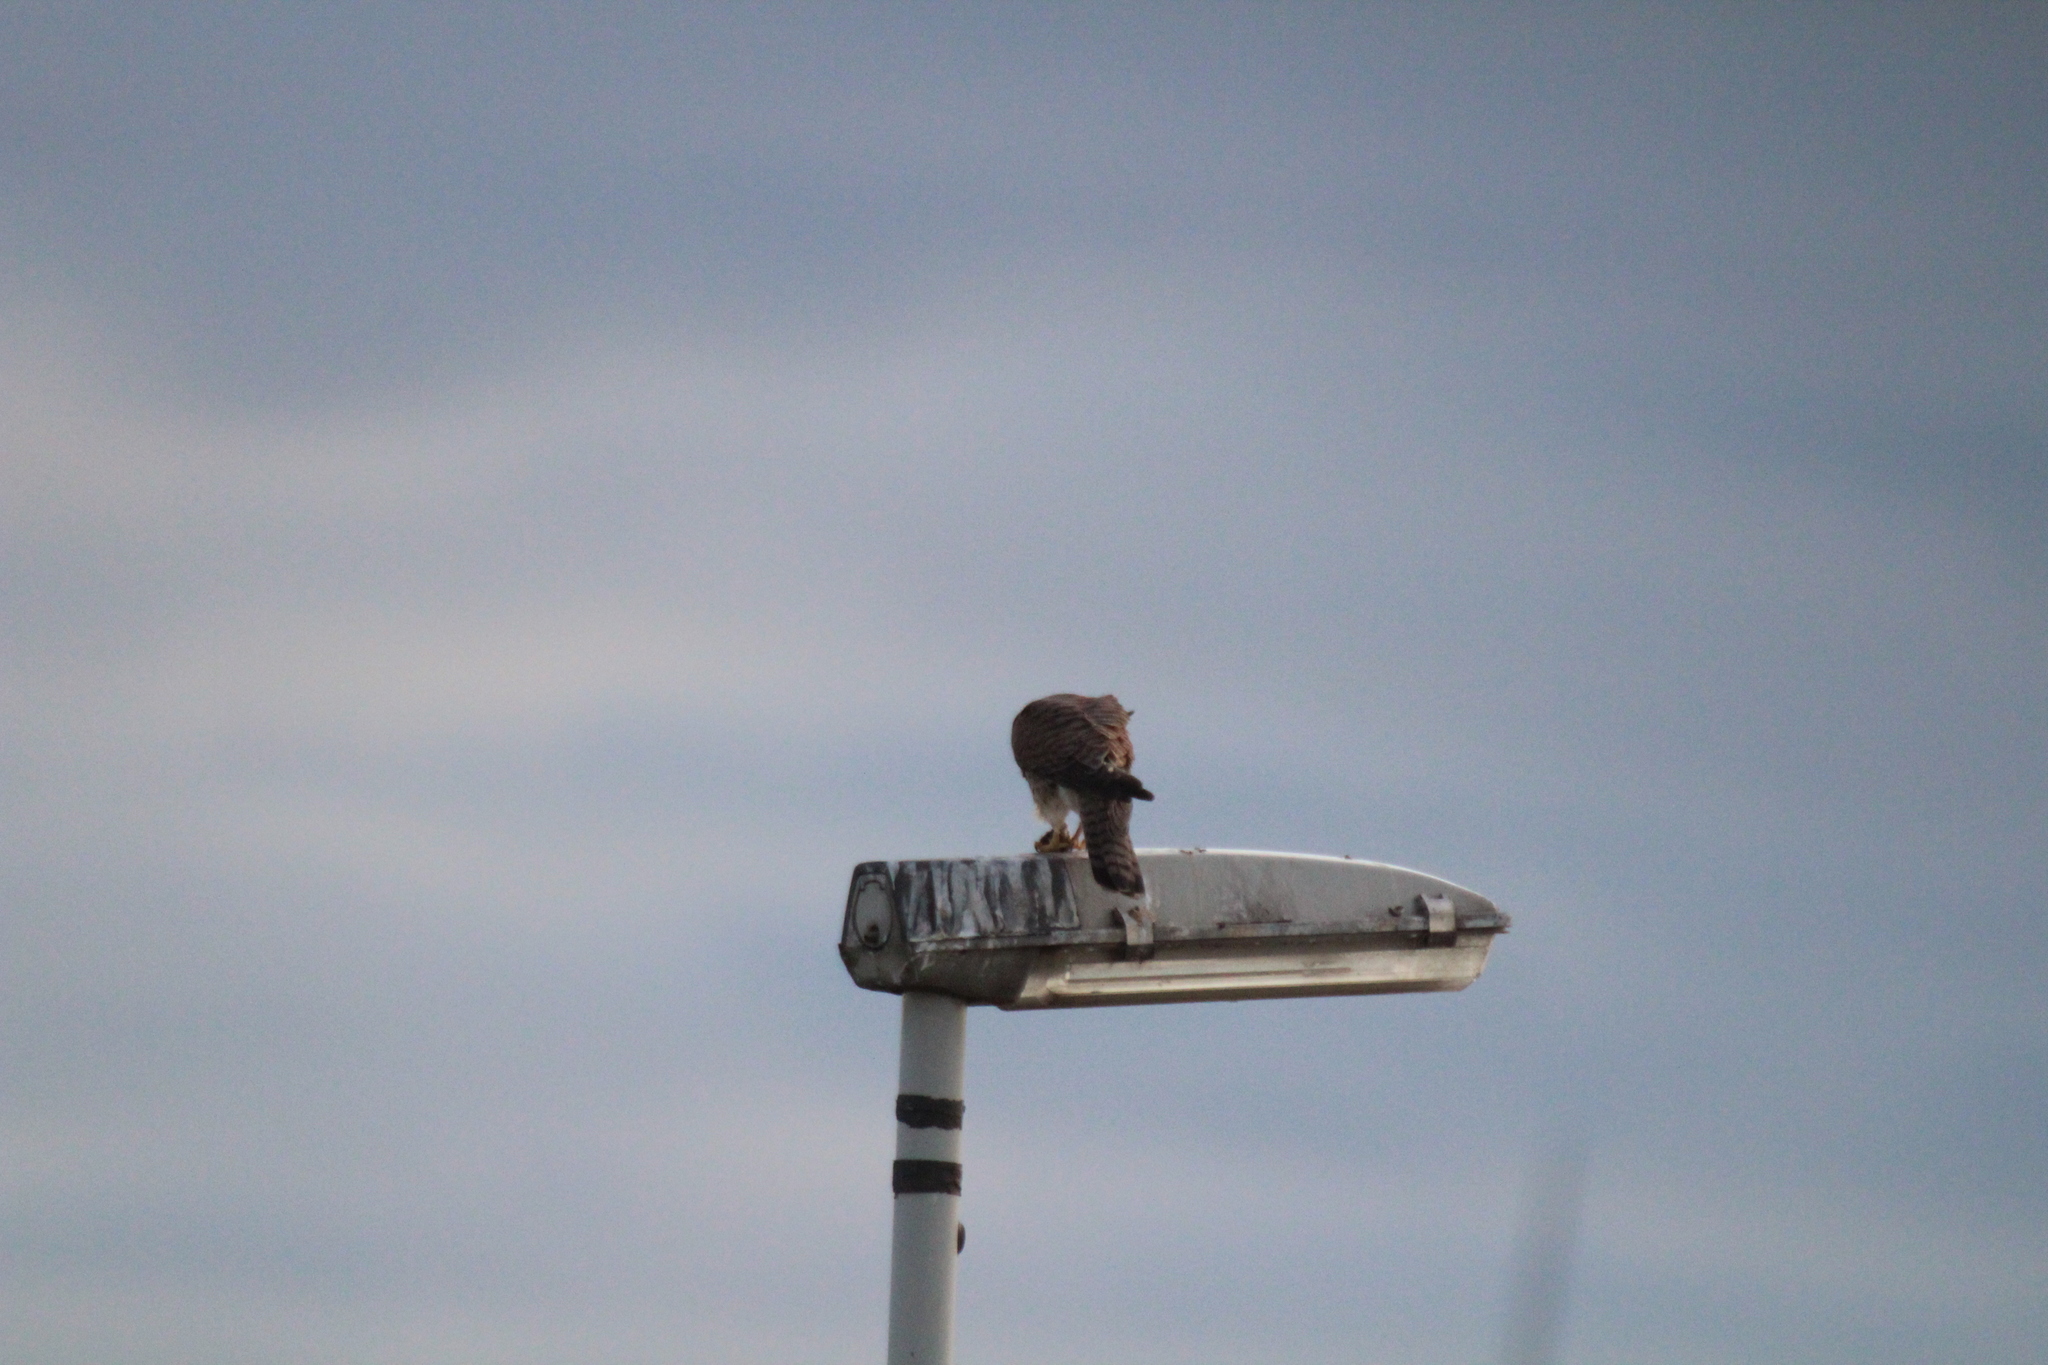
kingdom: Animalia
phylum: Chordata
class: Aves
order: Falconiformes
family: Falconidae
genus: Falco
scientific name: Falco tinnunculus
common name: Common kestrel
